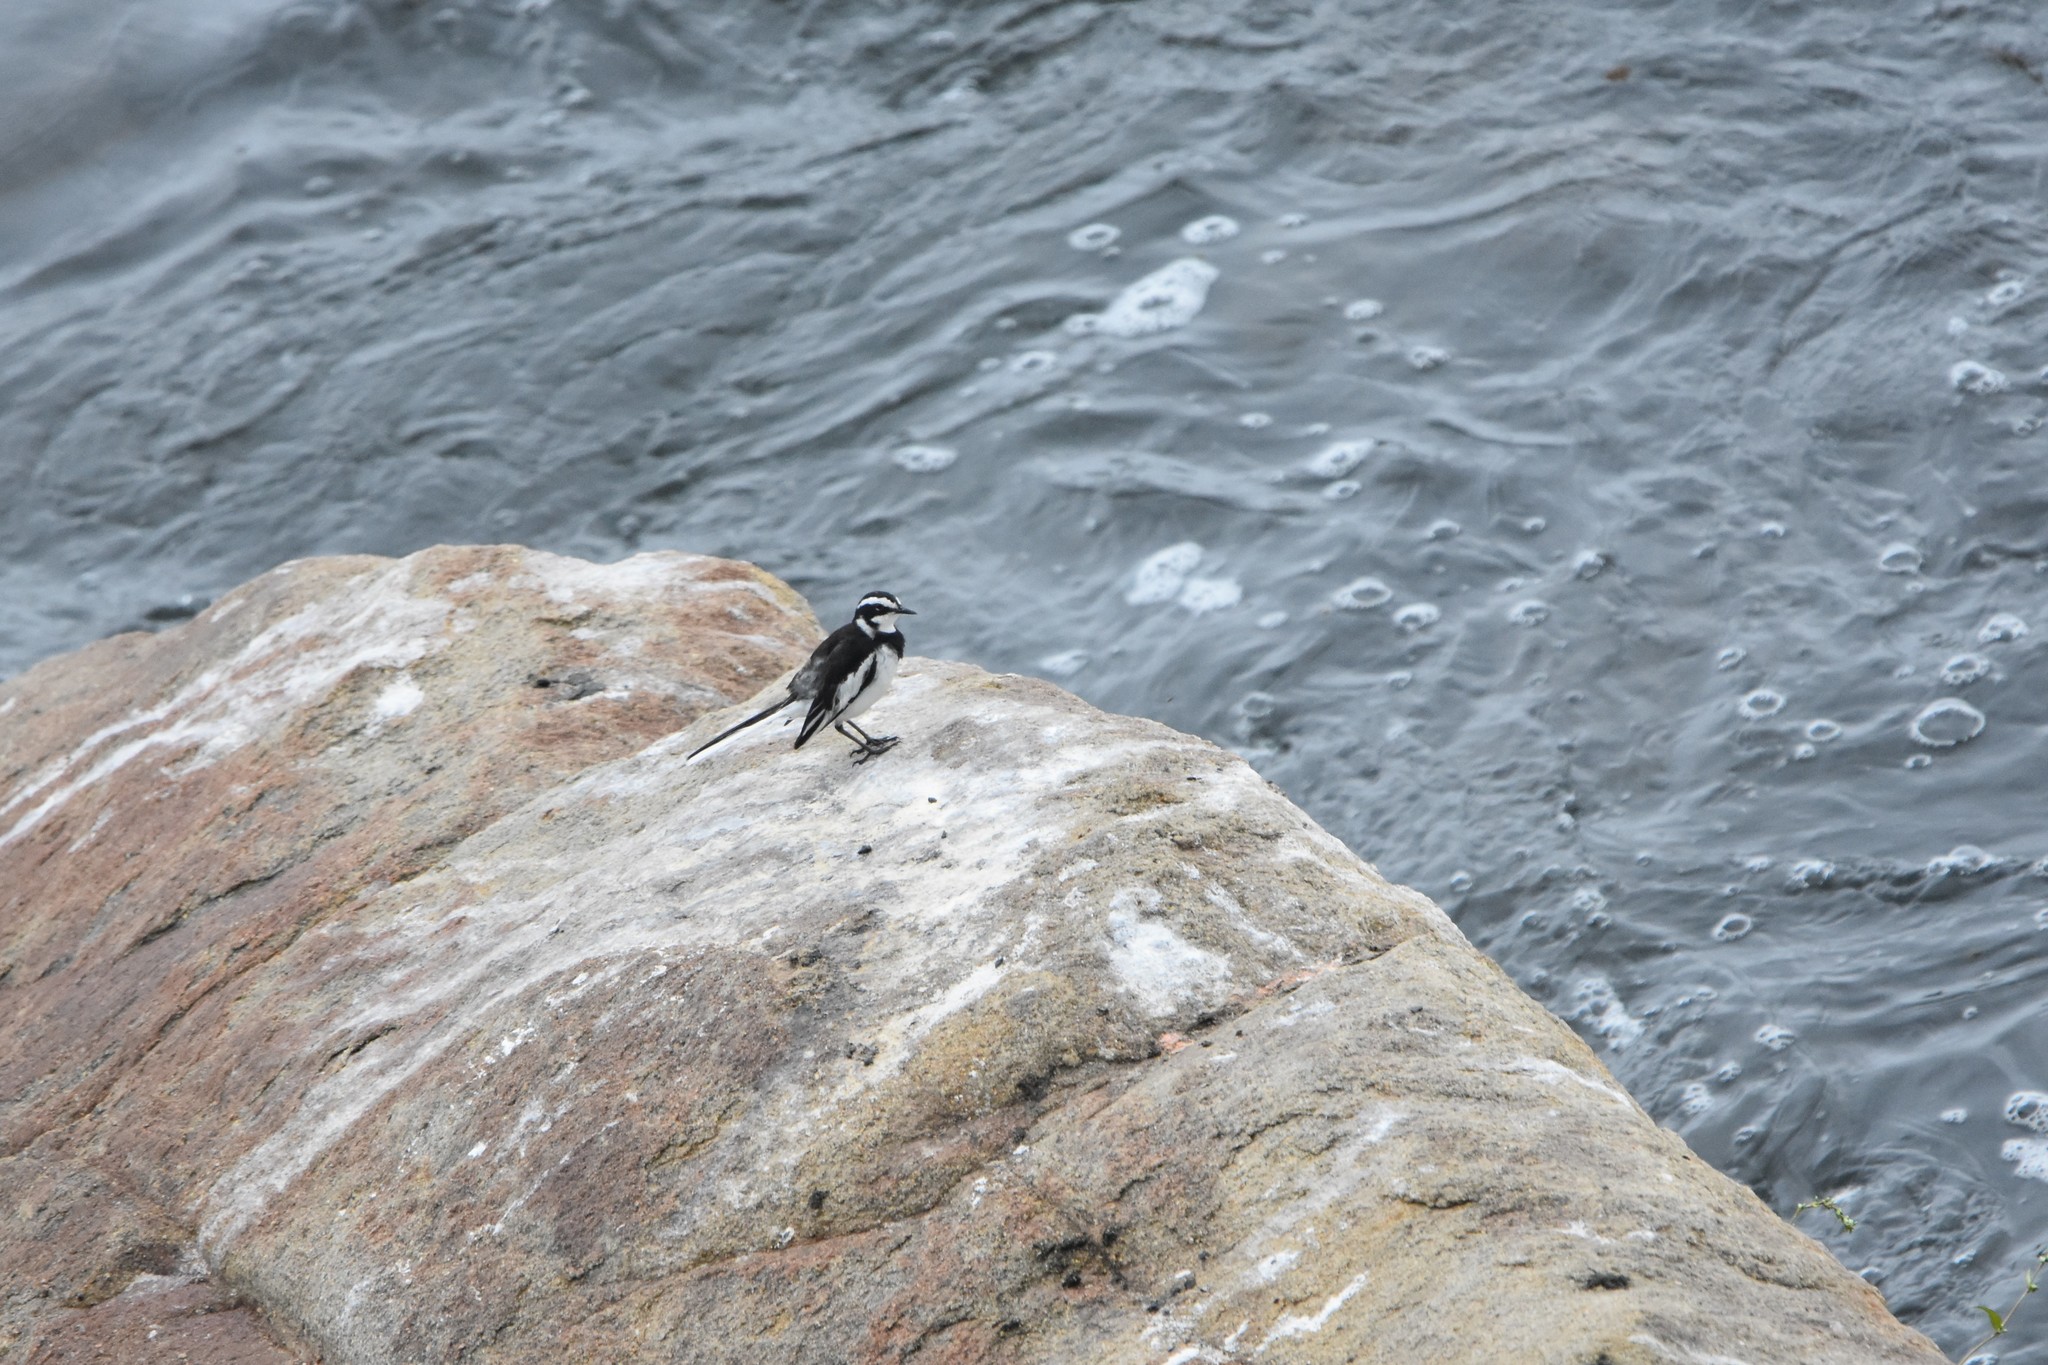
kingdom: Animalia
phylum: Chordata
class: Aves
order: Passeriformes
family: Motacillidae
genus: Motacilla
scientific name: Motacilla aguimp
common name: African pied wagtail
